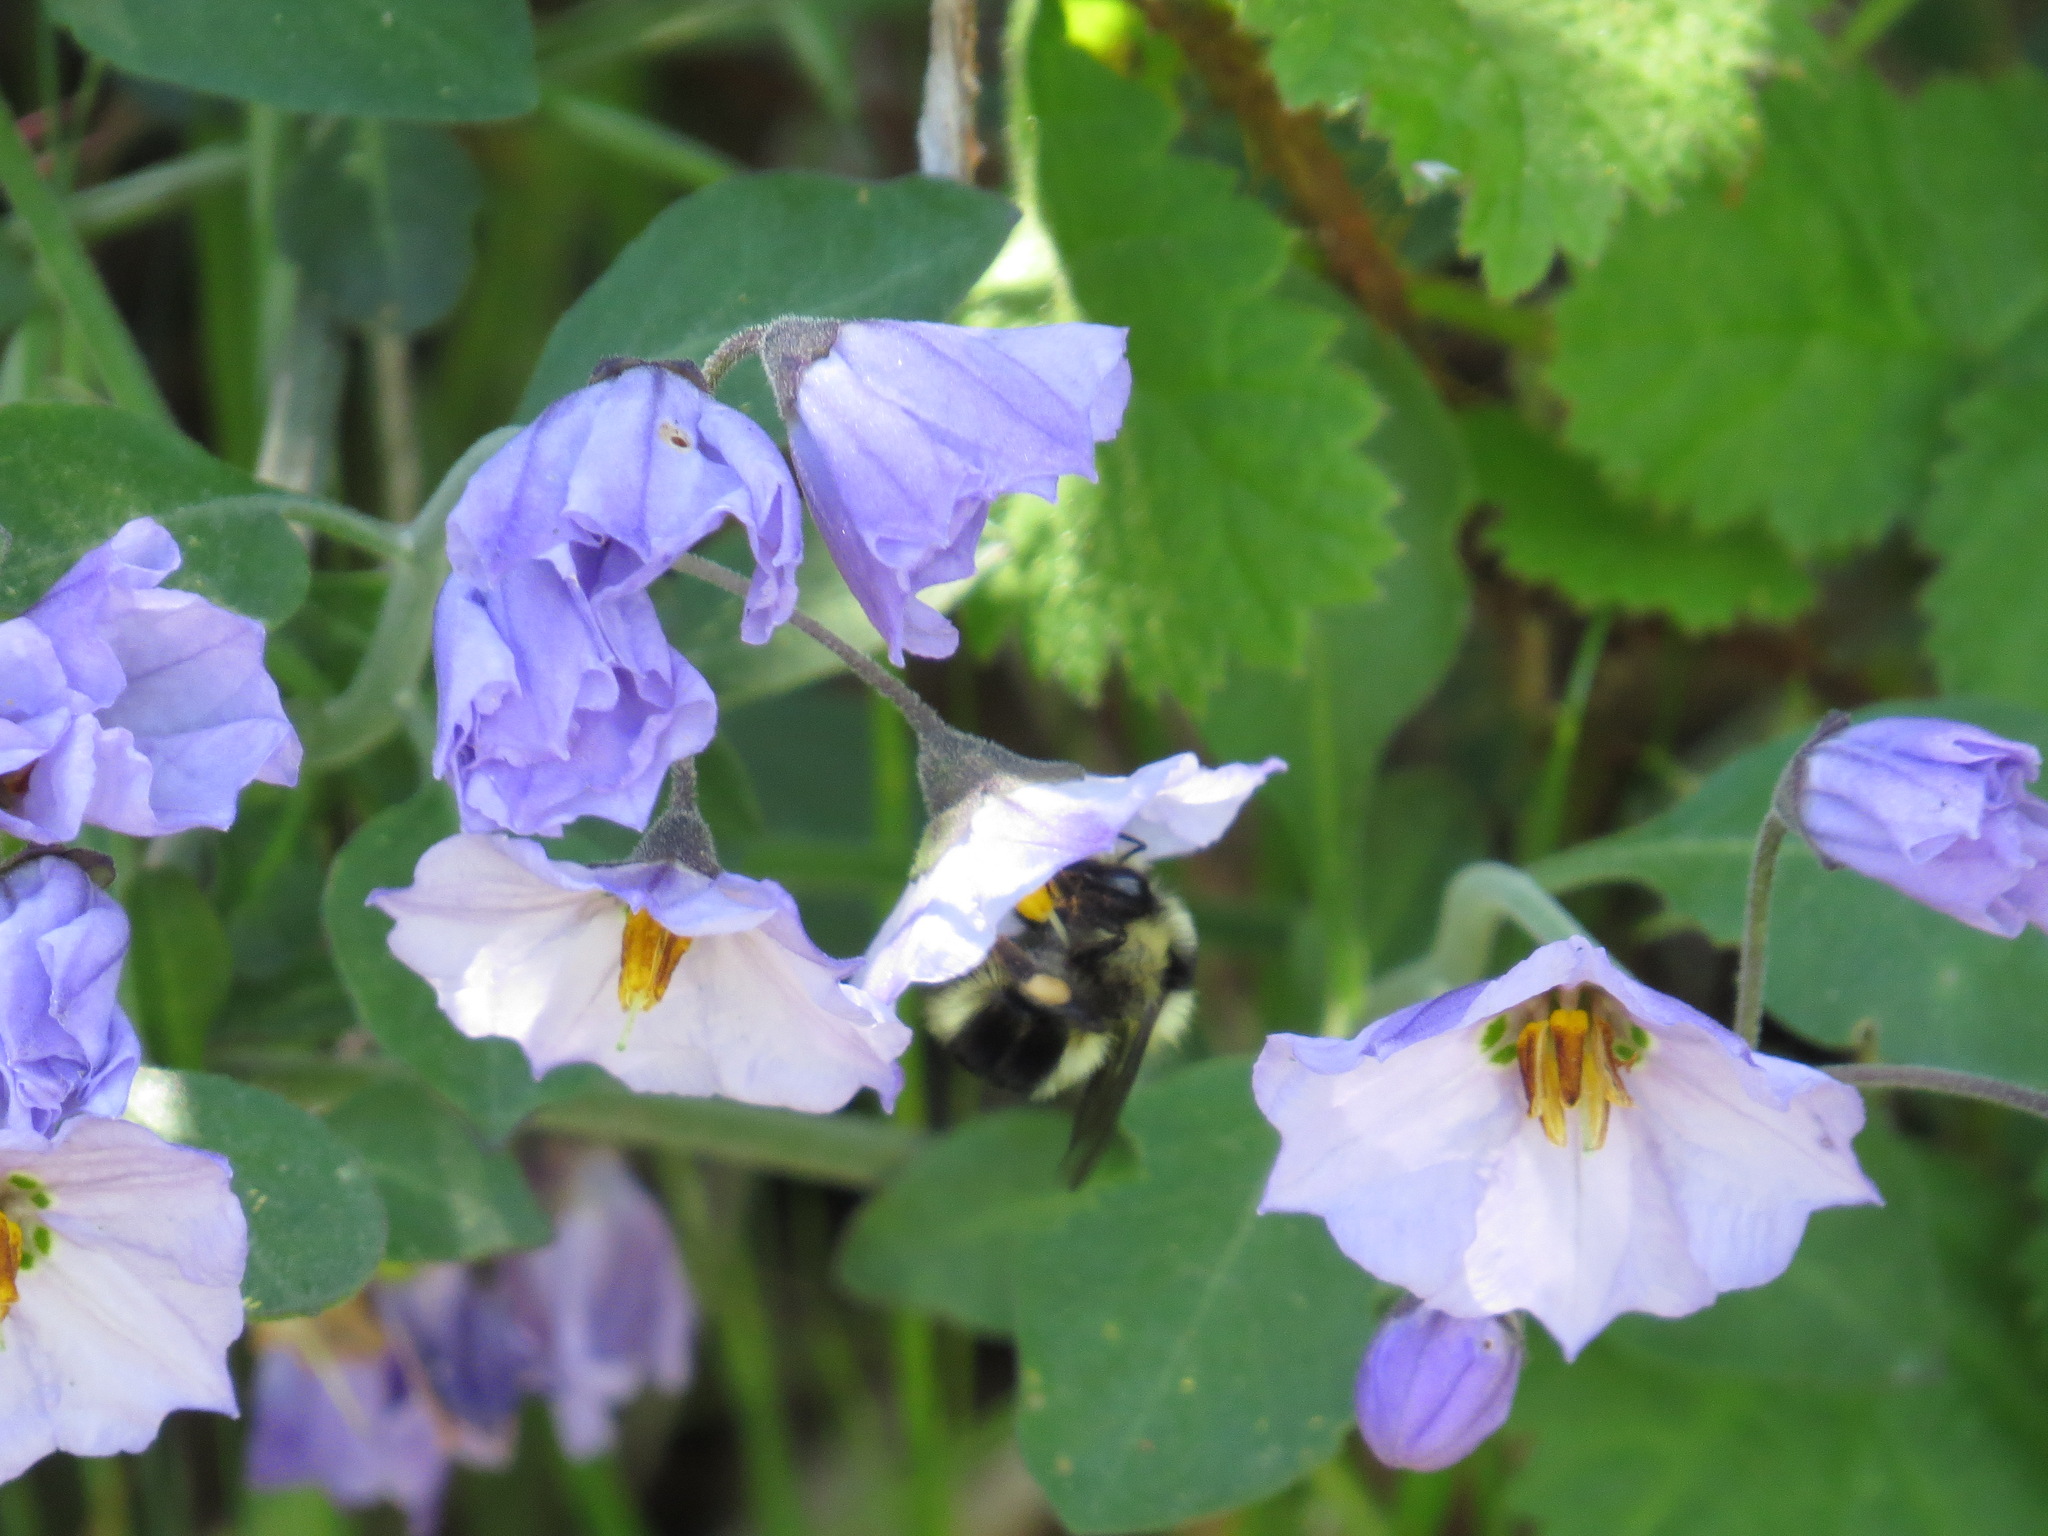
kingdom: Animalia
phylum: Arthropoda
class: Insecta
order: Hymenoptera
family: Apidae
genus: Bombus
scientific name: Bombus melanopygus
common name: Black tail bumble bee
